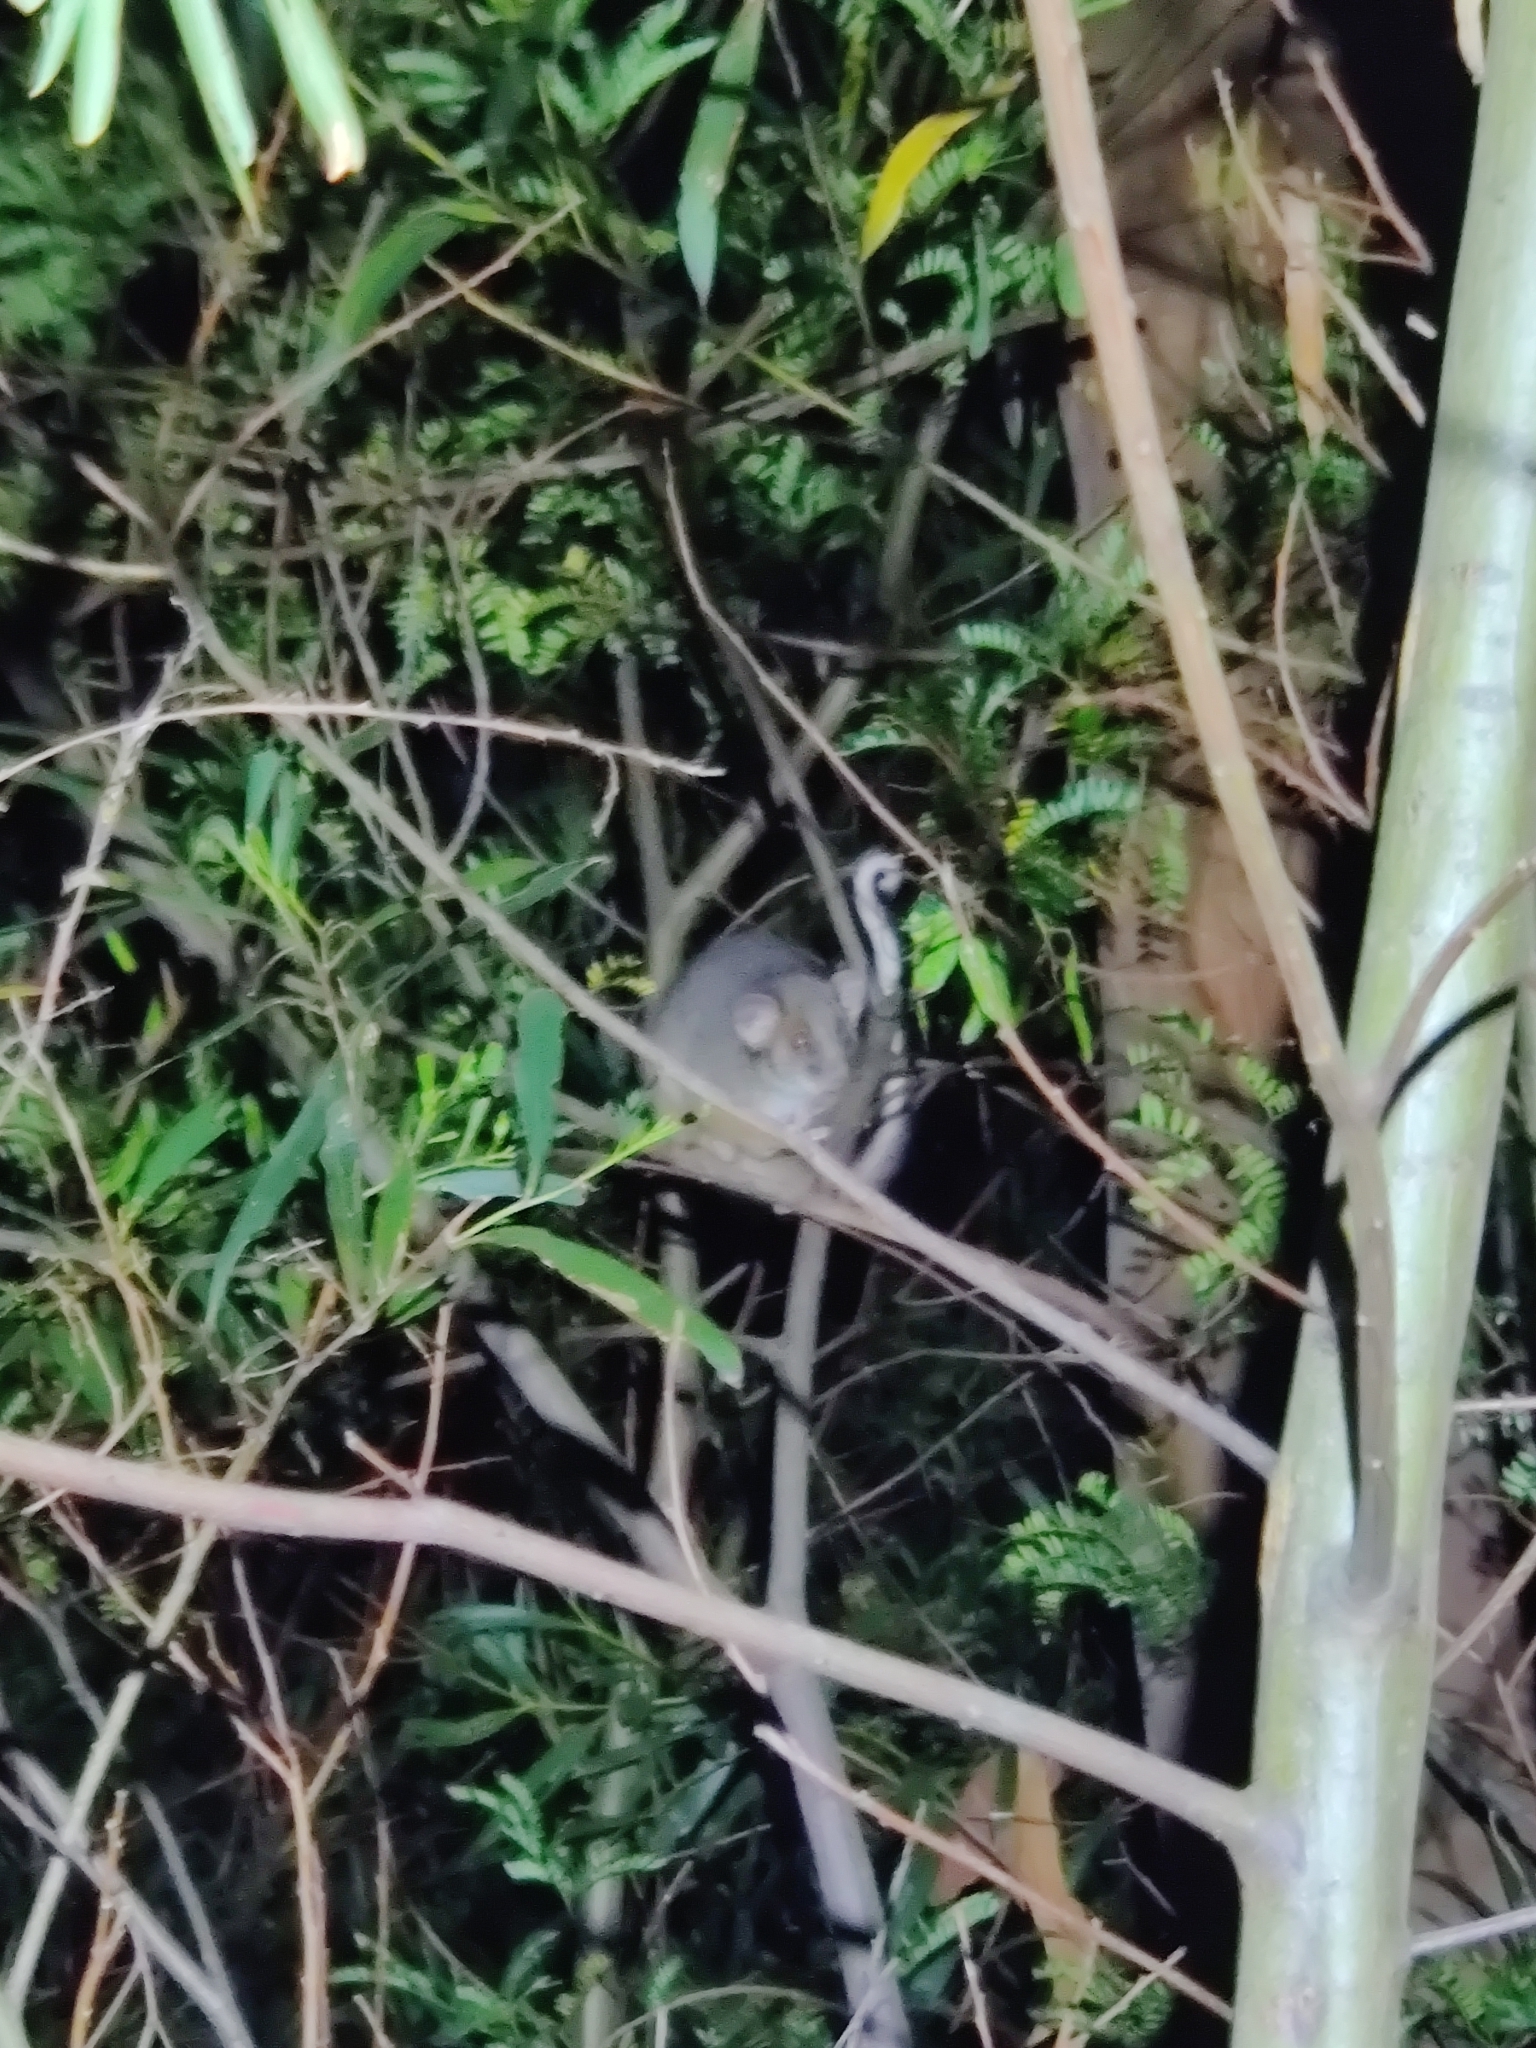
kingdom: Animalia
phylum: Chordata
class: Mammalia
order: Diprotodontia
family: Pseudocheiridae
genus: Pseudocheirus
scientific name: Pseudocheirus peregrinus
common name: Common ringtail possum
